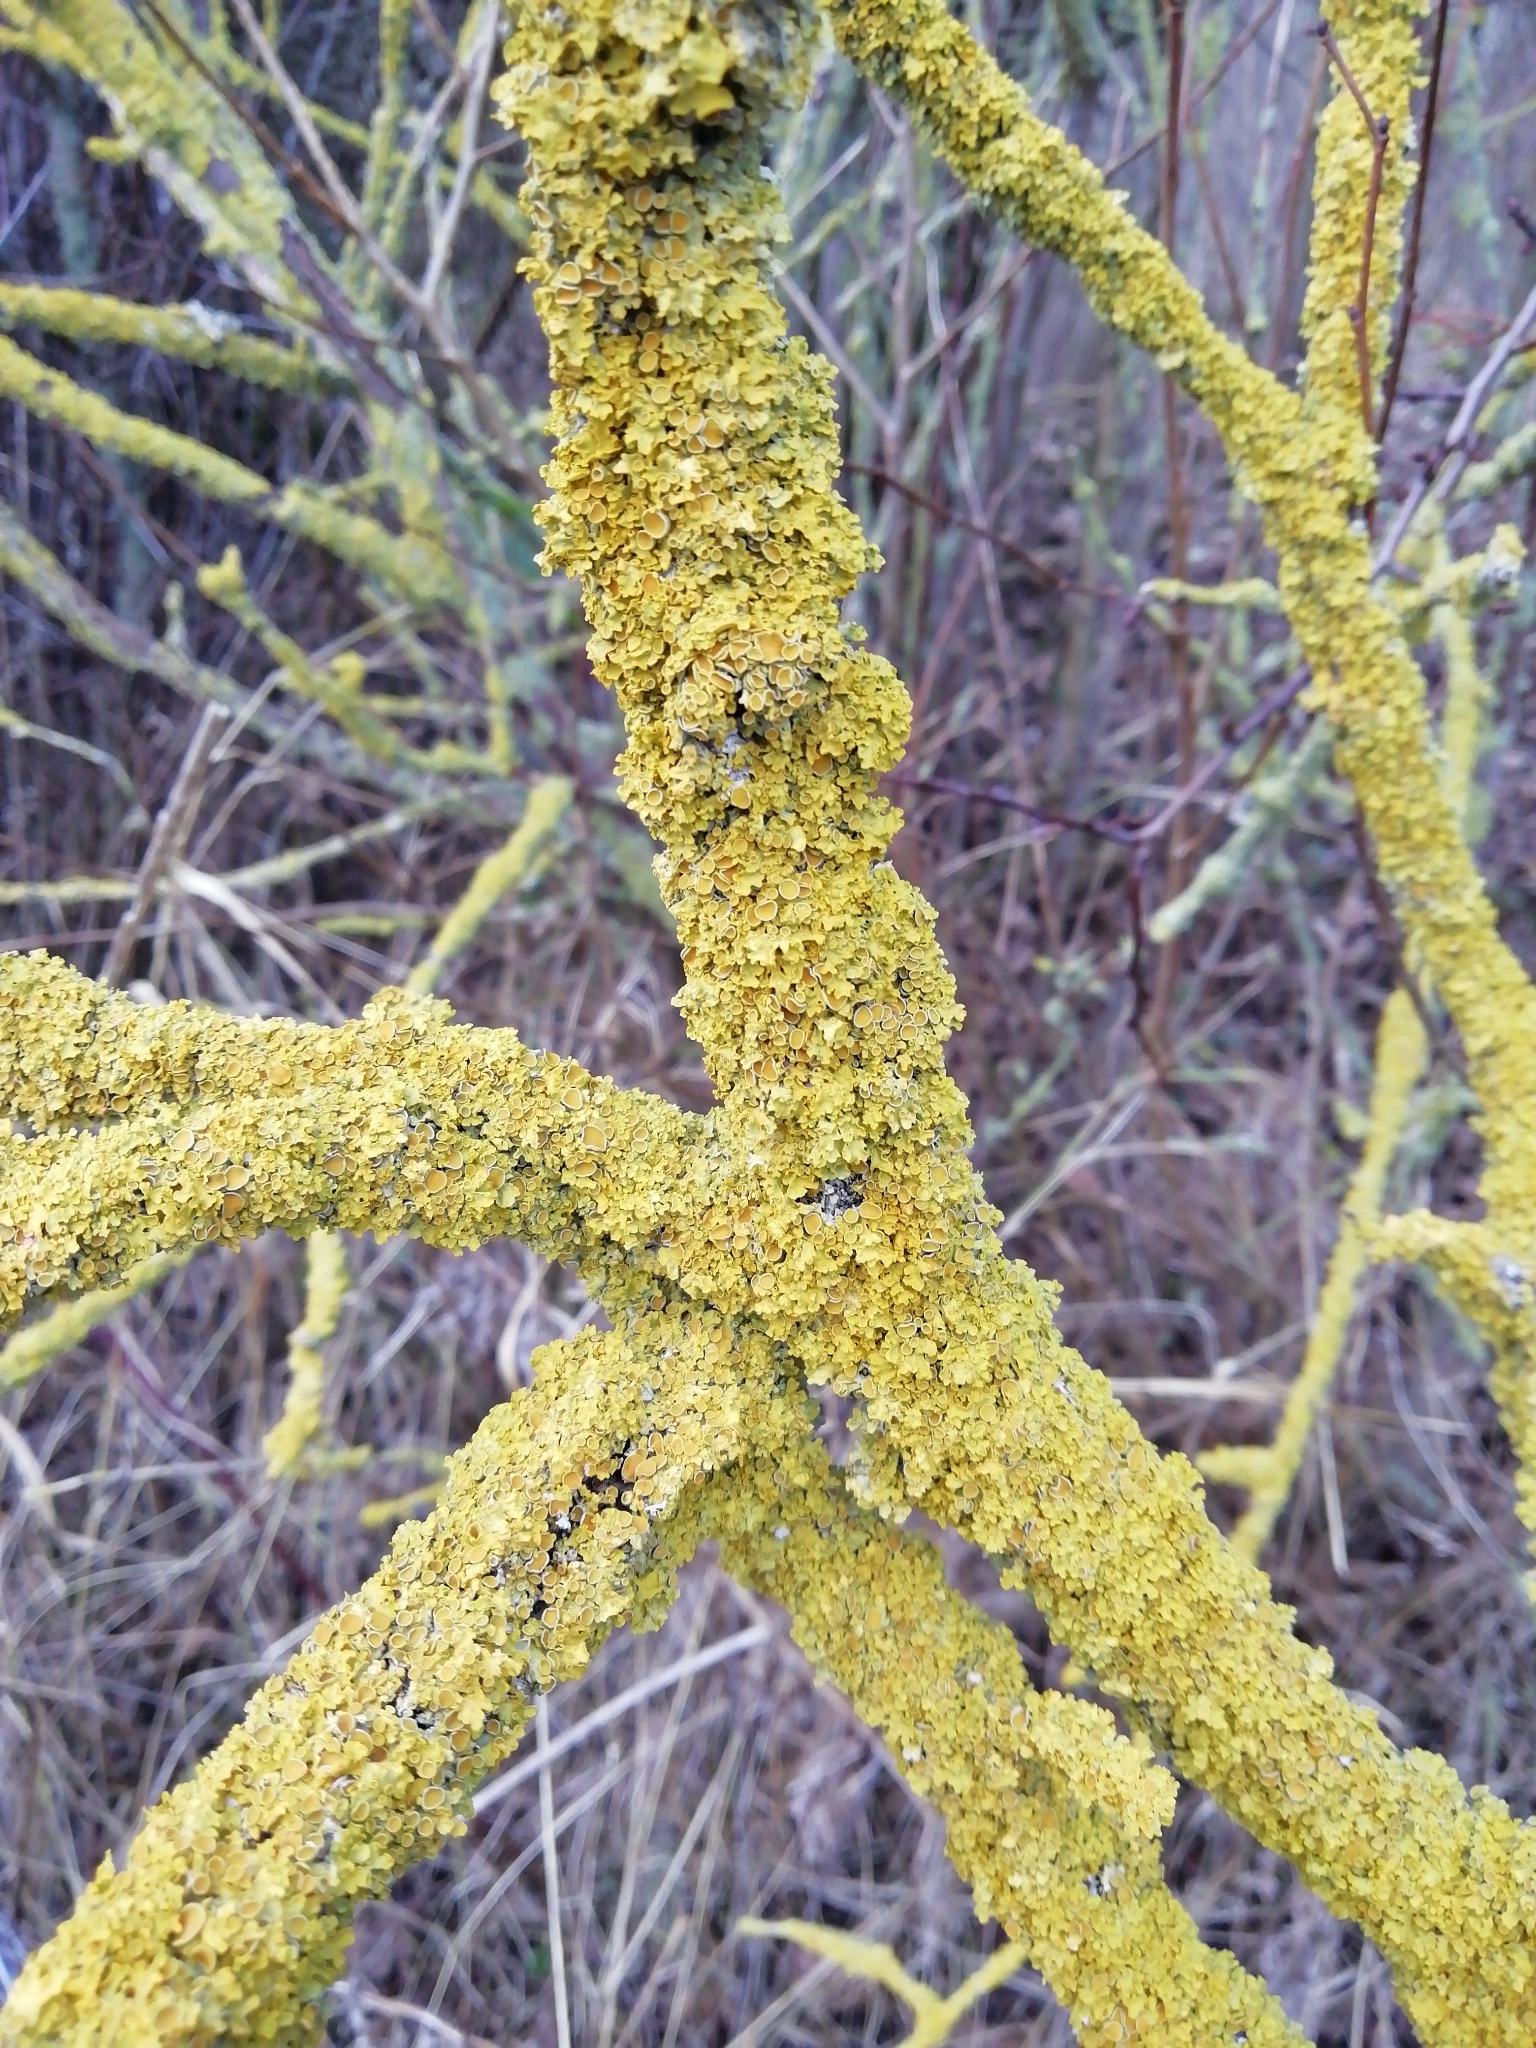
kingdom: Fungi
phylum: Ascomycota
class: Lecanoromycetes
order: Teloschistales
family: Teloschistaceae
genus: Xanthoria
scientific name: Xanthoria parietina
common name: Common orange lichen
